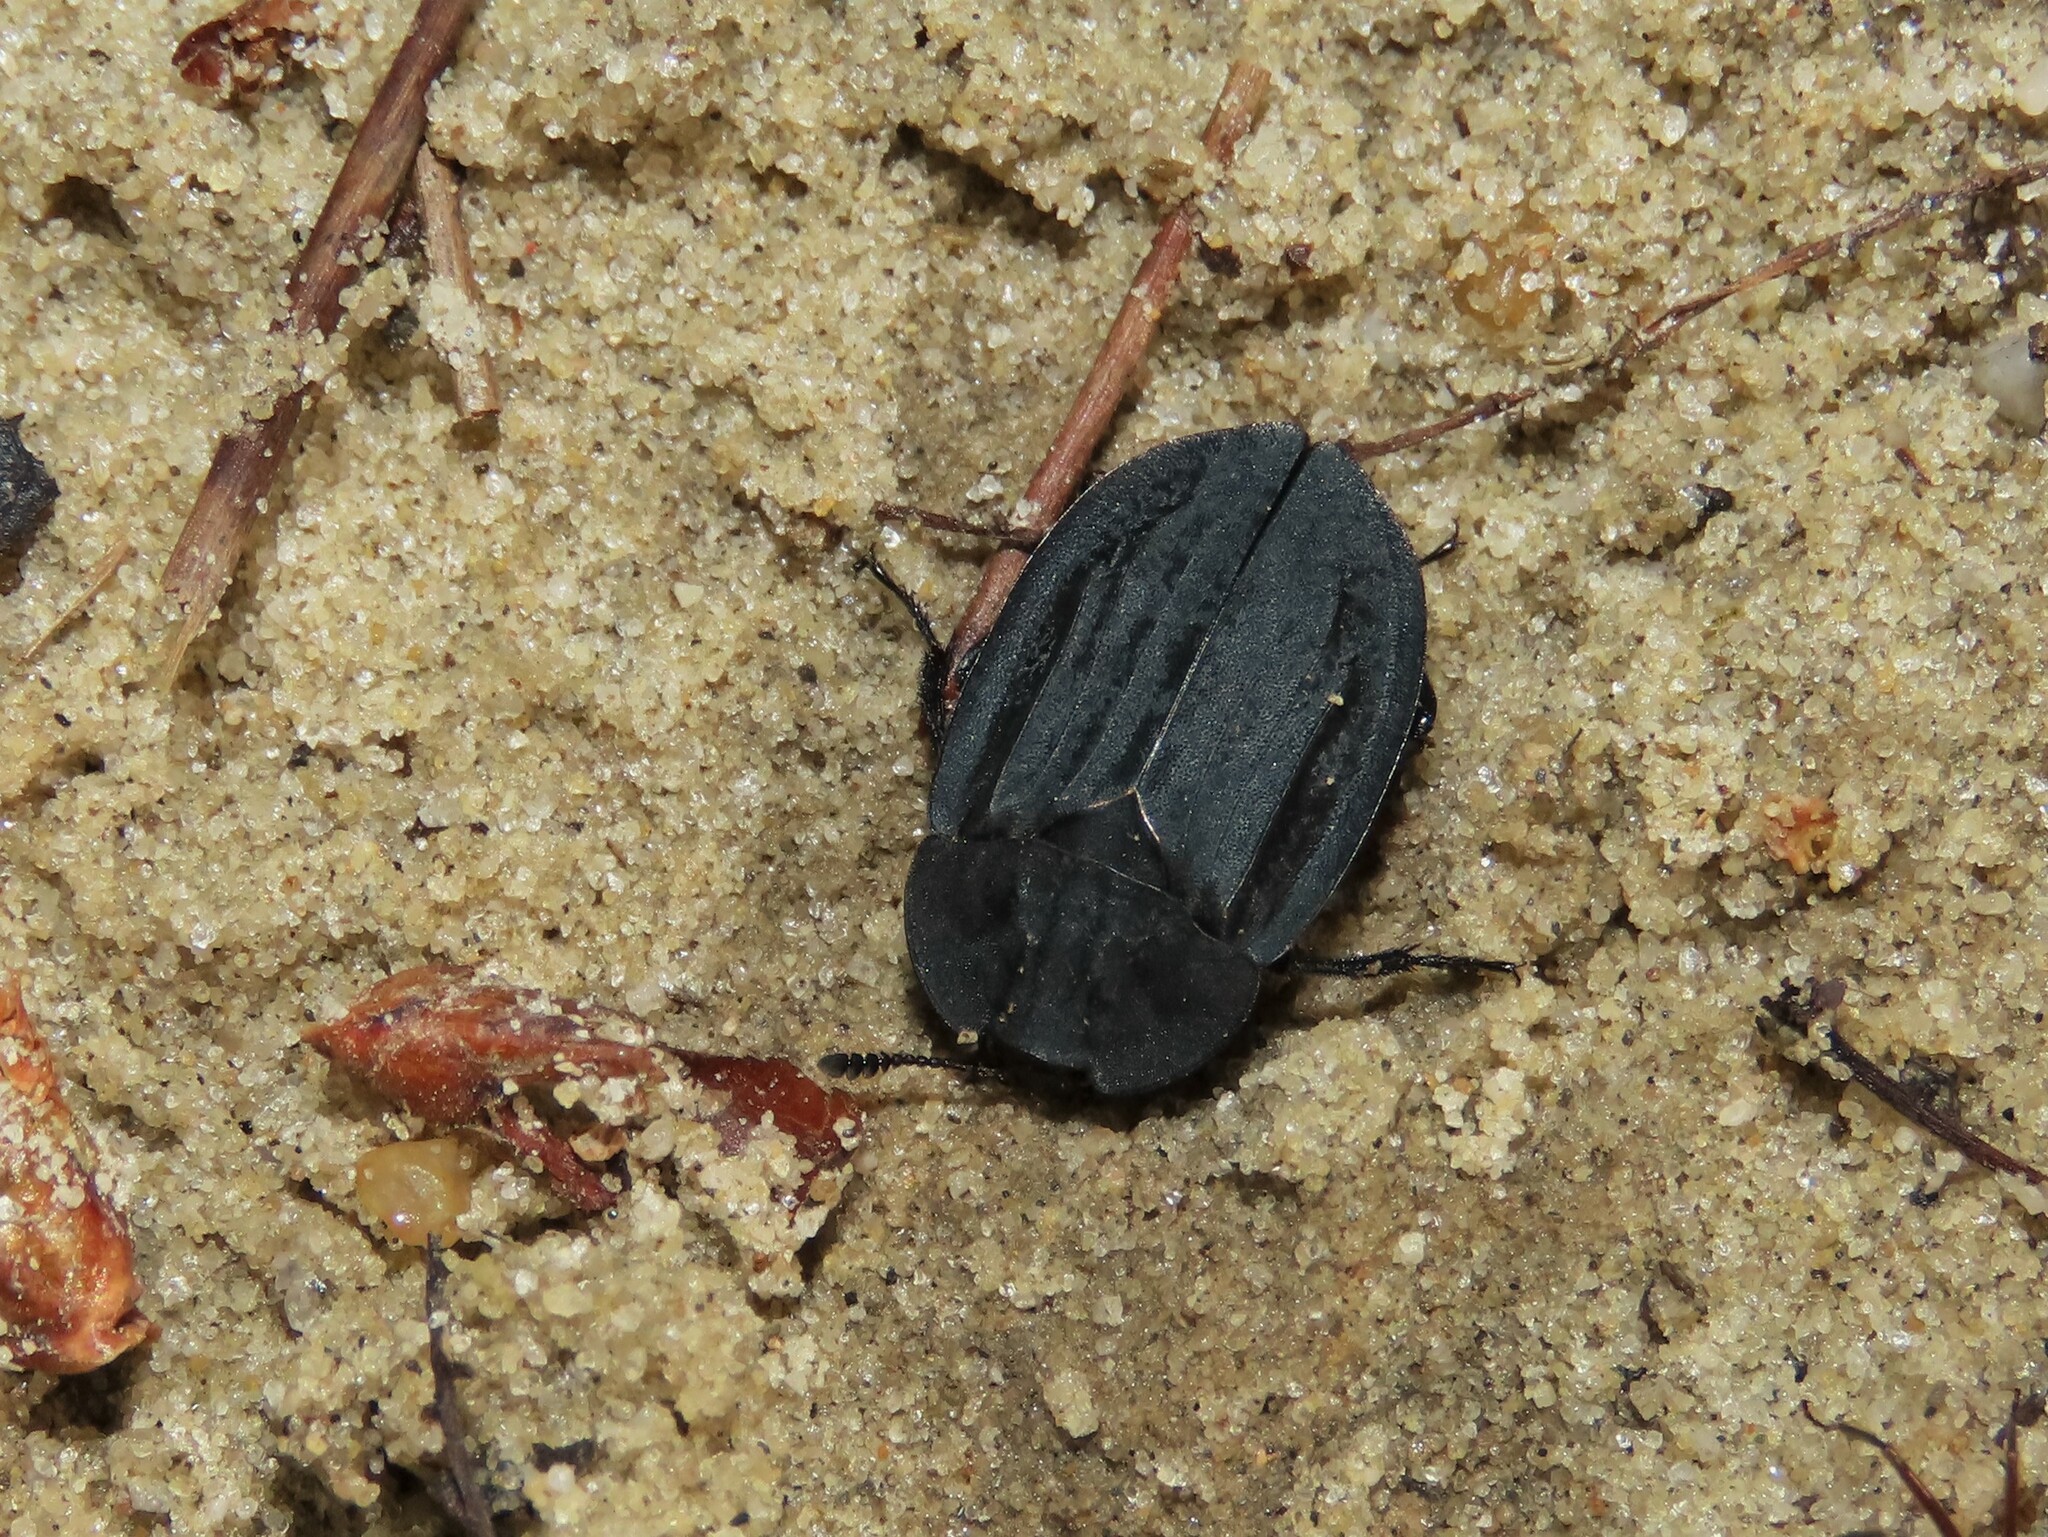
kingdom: Animalia
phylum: Arthropoda
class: Insecta
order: Coleoptera
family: Staphylinidae
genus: Oiceoptoma
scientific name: Oiceoptoma inaequale
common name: Ridged carrion beetle
